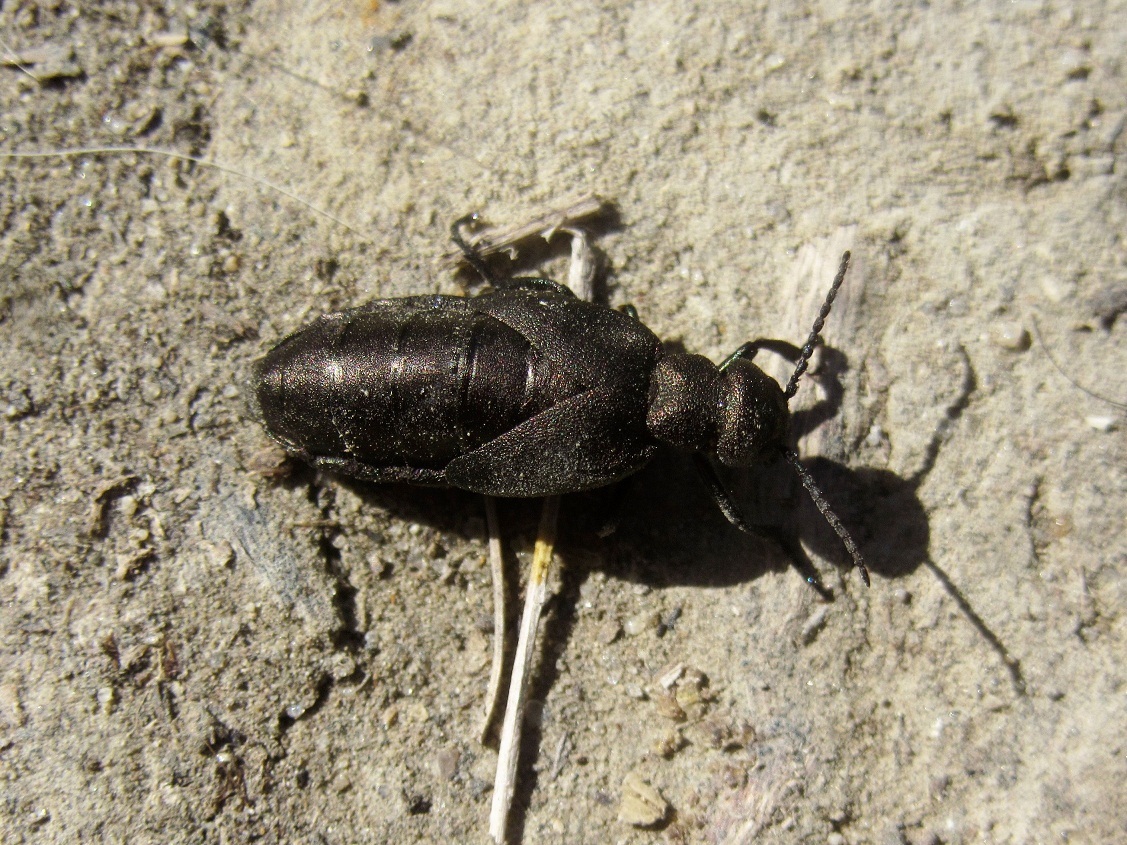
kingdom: Animalia
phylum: Arthropoda
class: Insecta
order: Coleoptera
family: Meloidae
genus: Meloe
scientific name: Meloe aeneus
